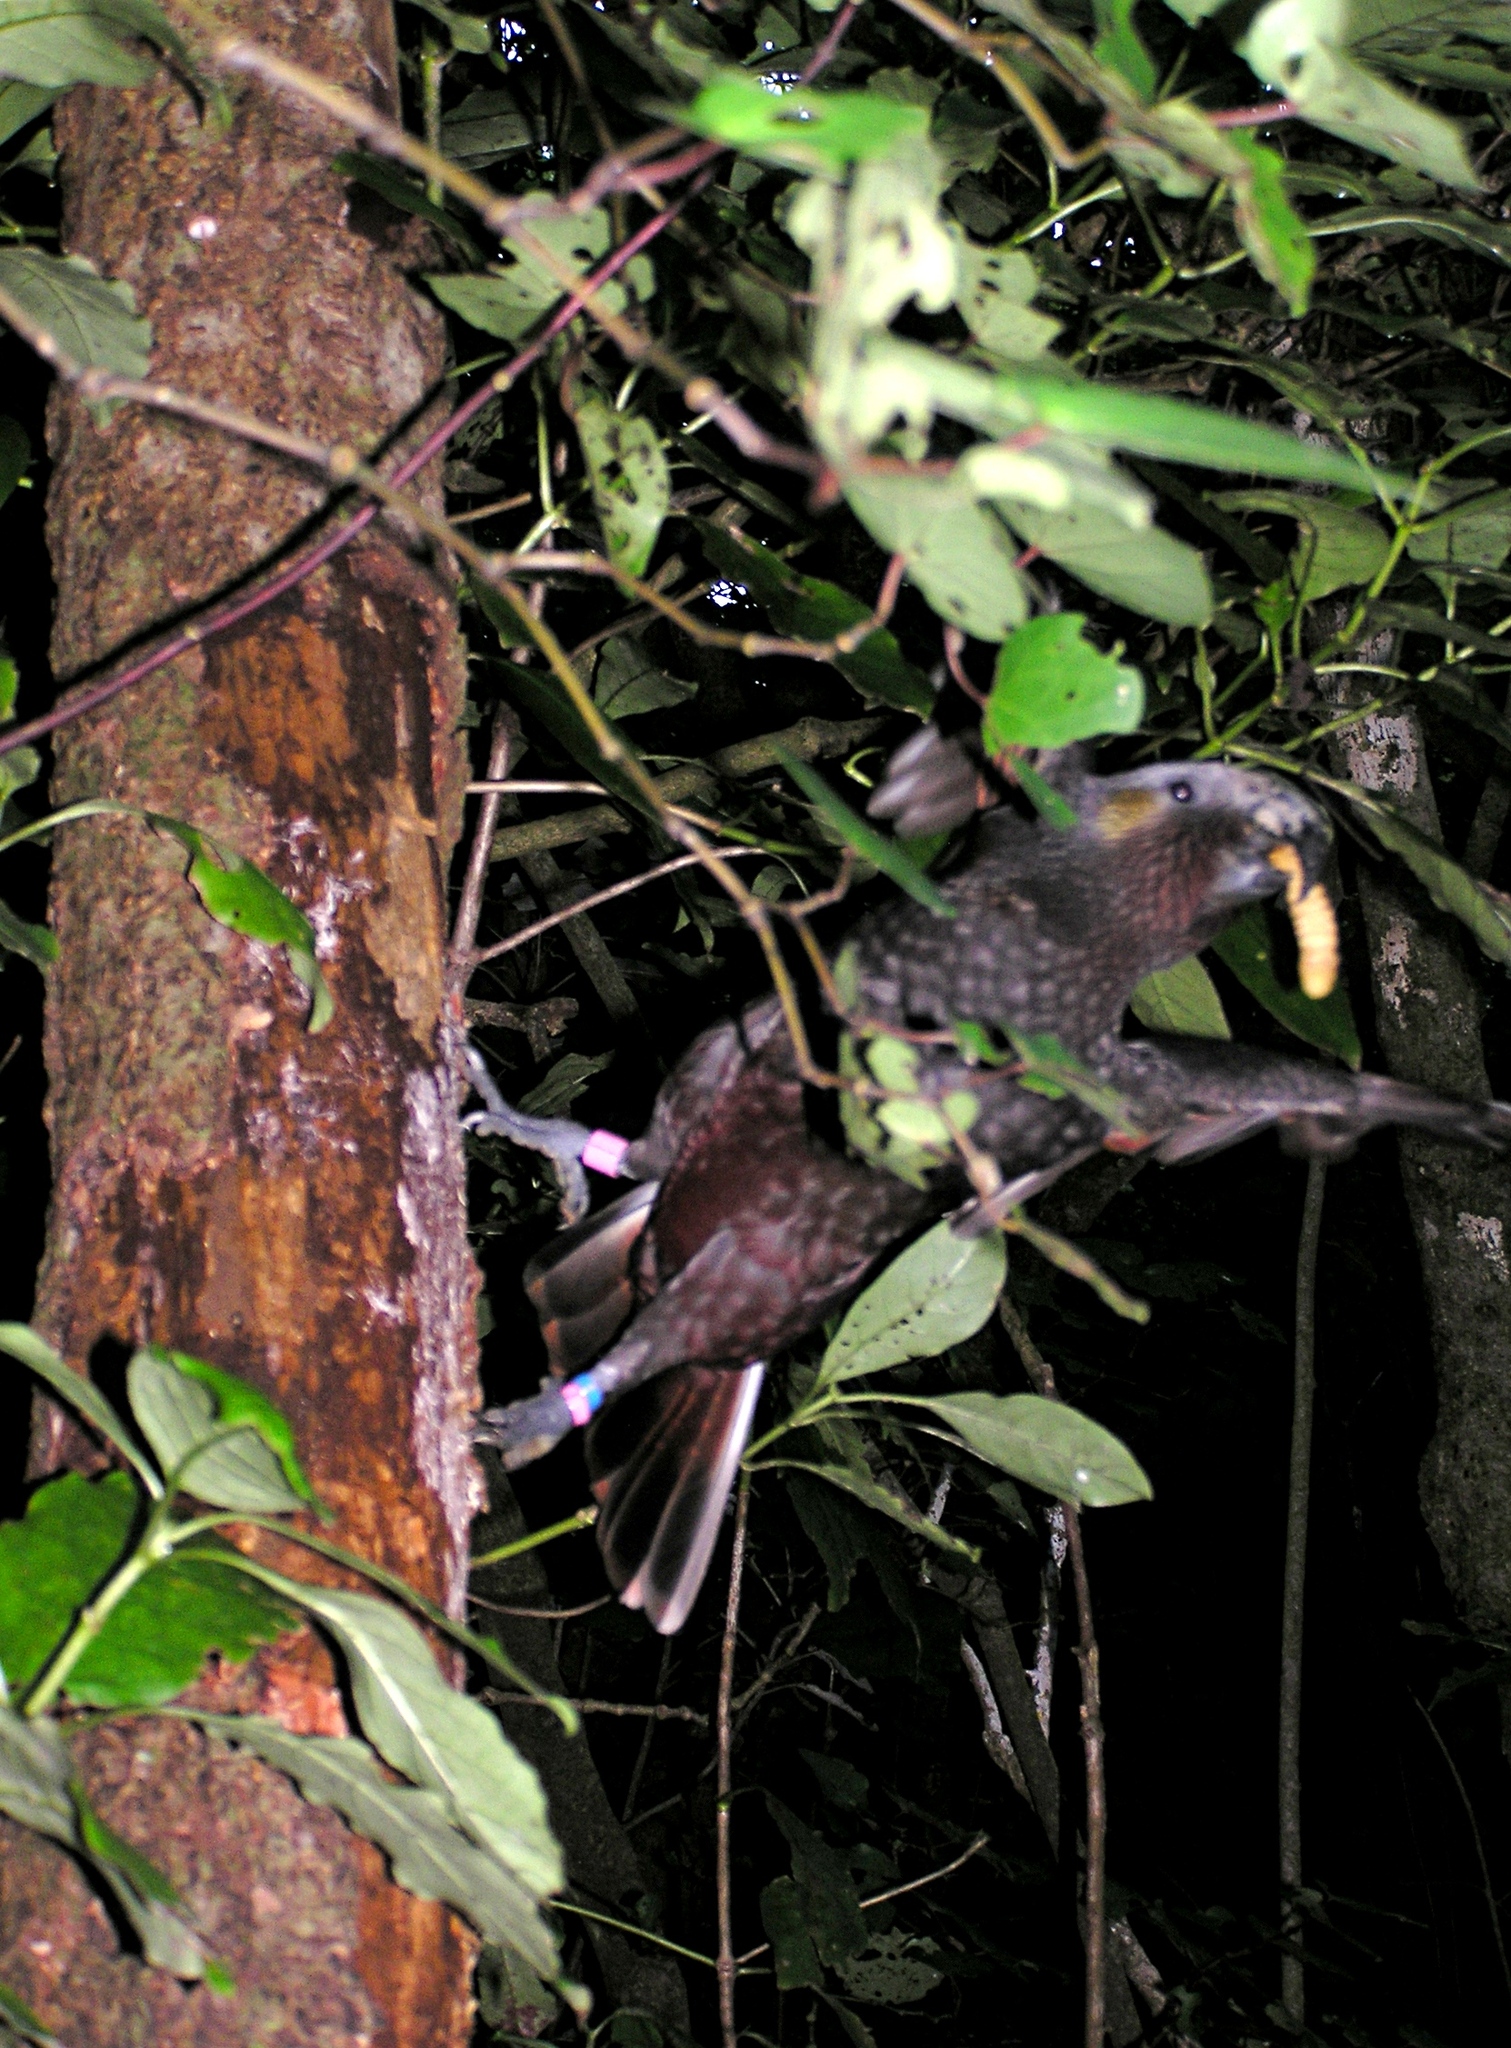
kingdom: Animalia
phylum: Chordata
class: Aves
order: Psittaciformes
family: Psittacidae
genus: Nestor
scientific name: Nestor meridionalis
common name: New zealand kaka
